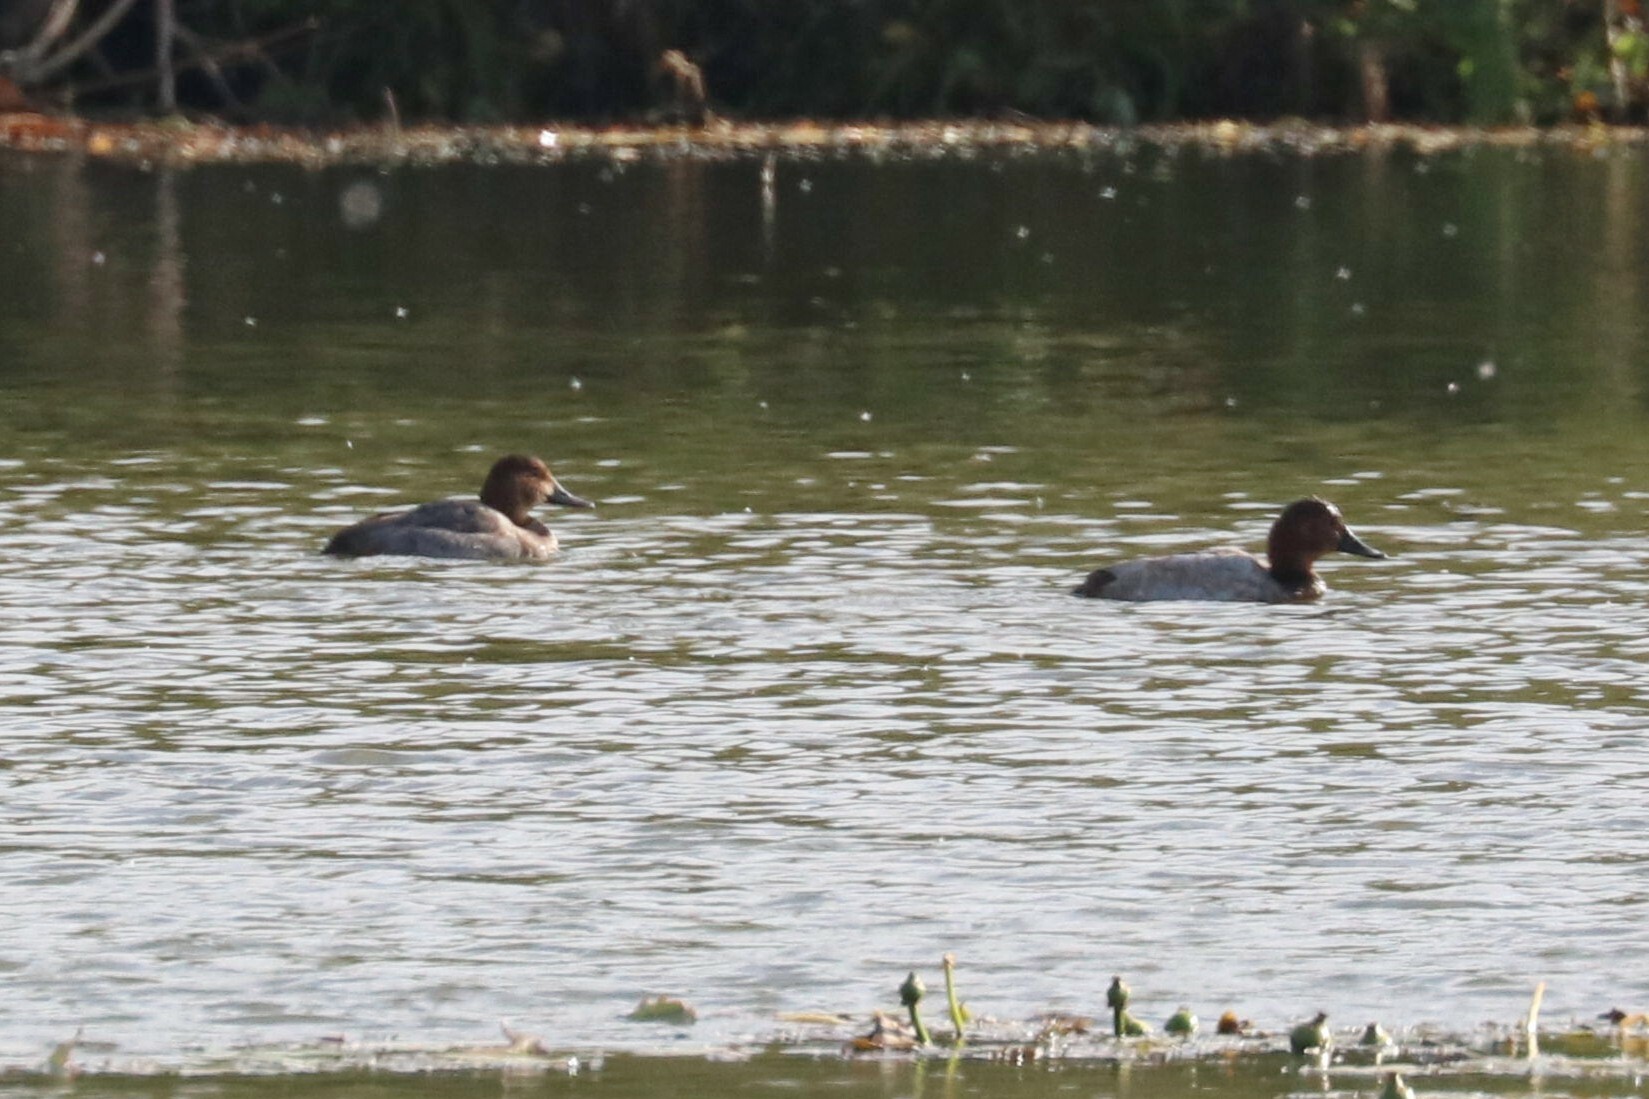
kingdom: Animalia
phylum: Chordata
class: Aves
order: Anseriformes
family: Anatidae
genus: Aythya
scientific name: Aythya ferina
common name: Common pochard
